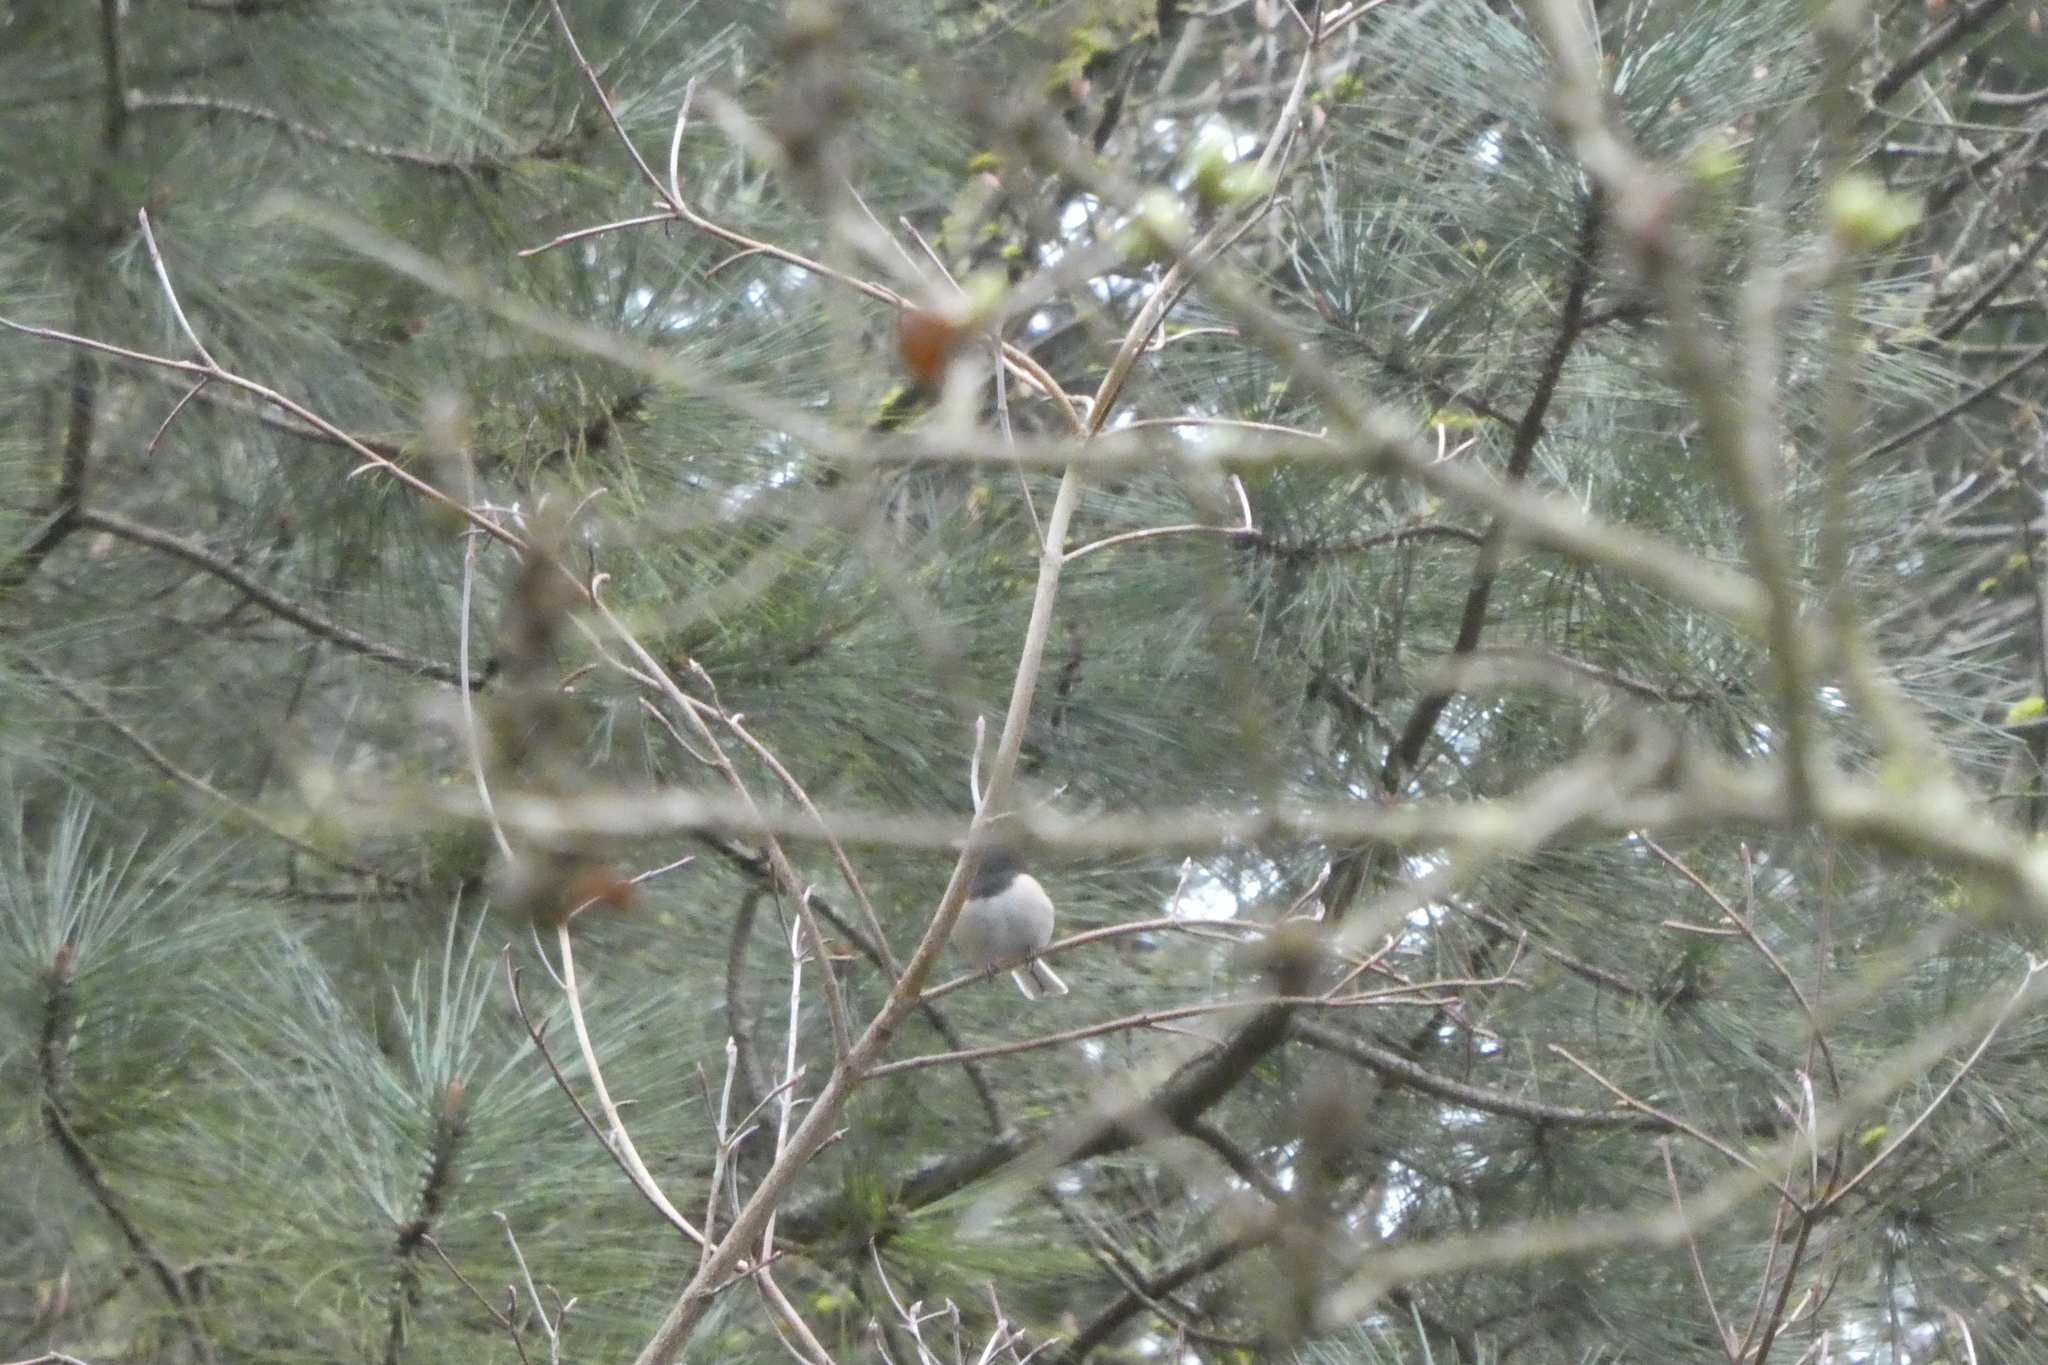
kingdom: Animalia
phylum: Chordata
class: Aves
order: Passeriformes
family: Passerellidae
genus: Junco
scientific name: Junco hyemalis
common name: Dark-eyed junco
